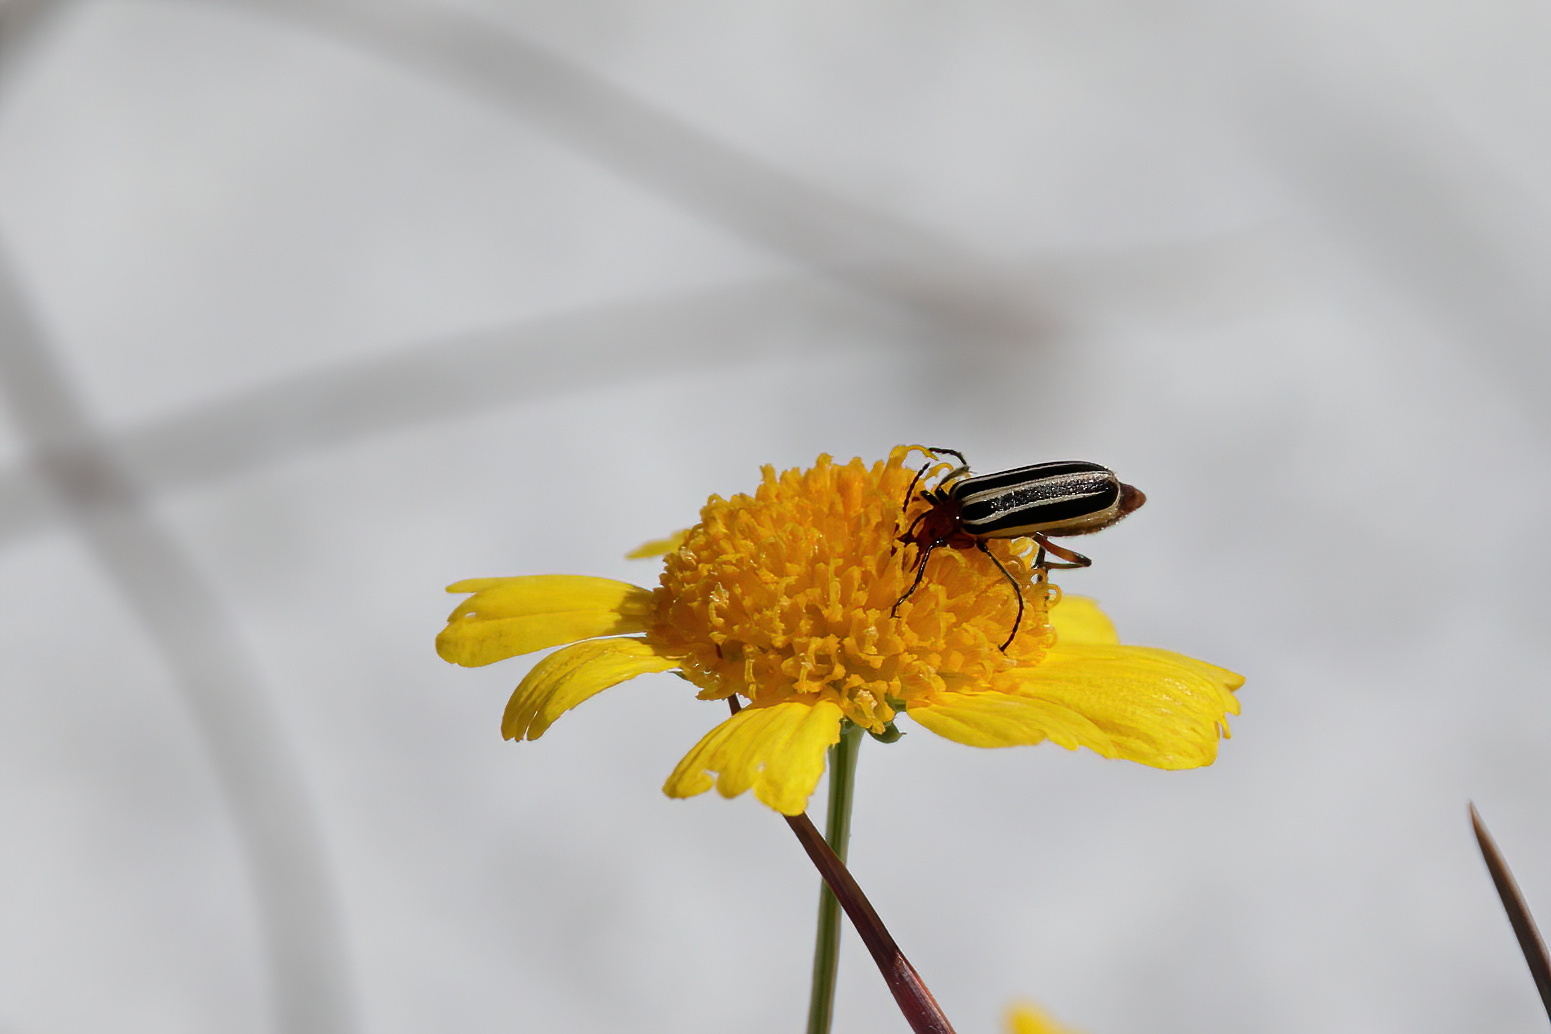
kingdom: Animalia
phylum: Arthropoda
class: Insecta
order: Coleoptera
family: Meloidae
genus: Pyrota
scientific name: Pyrota
